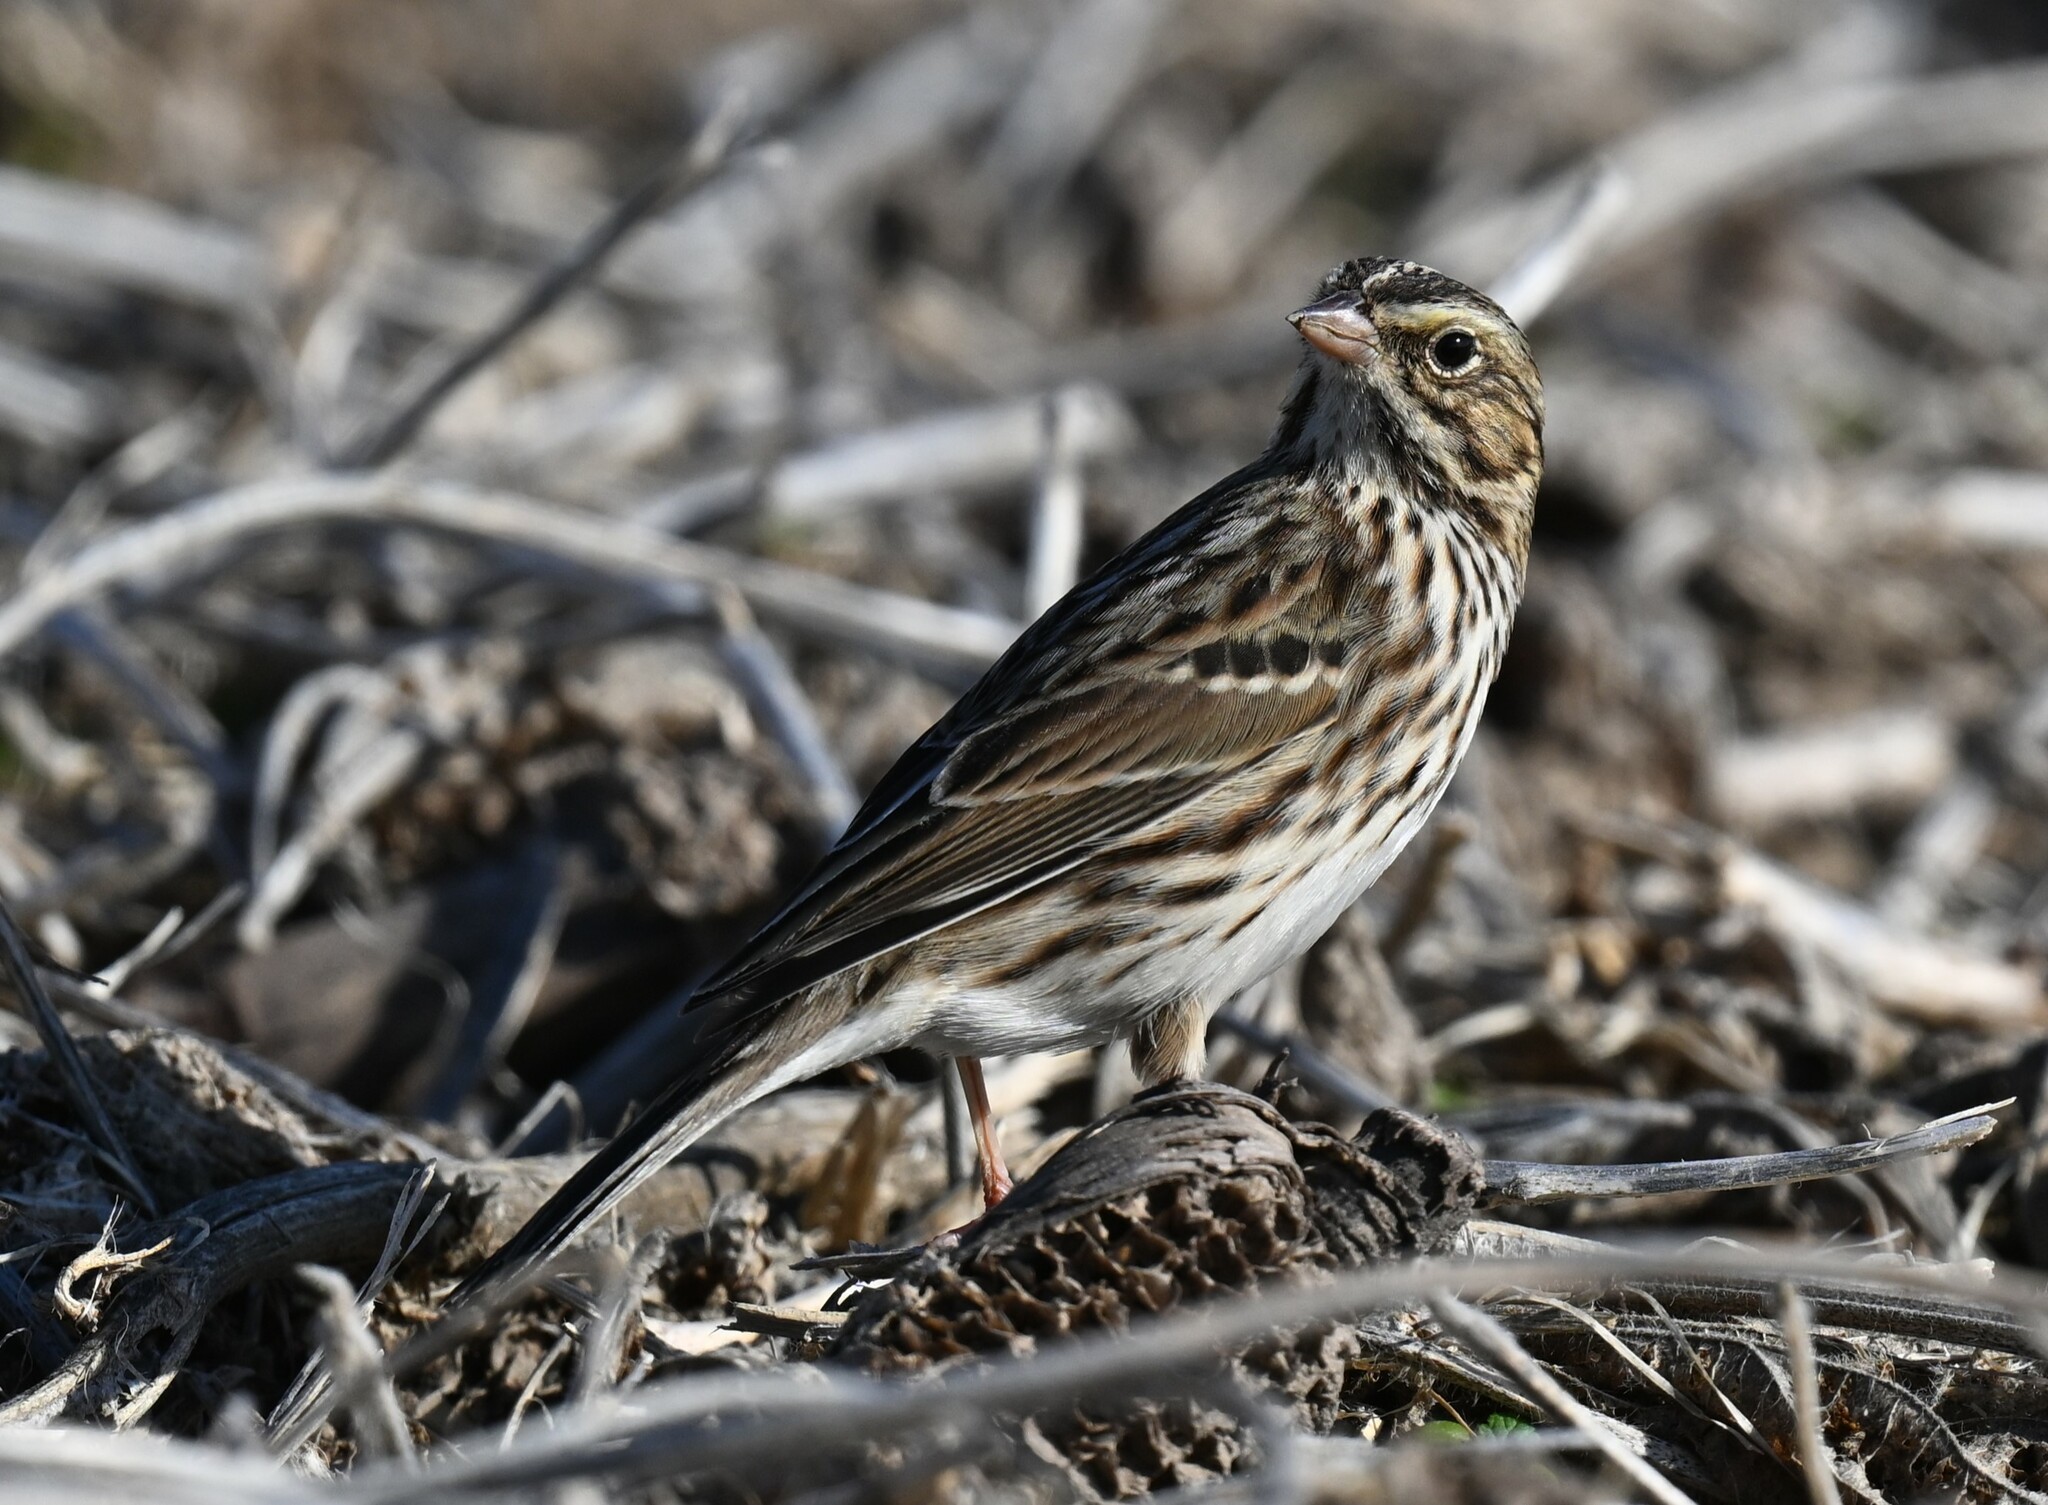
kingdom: Animalia
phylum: Chordata
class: Aves
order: Passeriformes
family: Passerellidae
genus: Passerculus
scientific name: Passerculus sandwichensis
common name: Savannah sparrow
